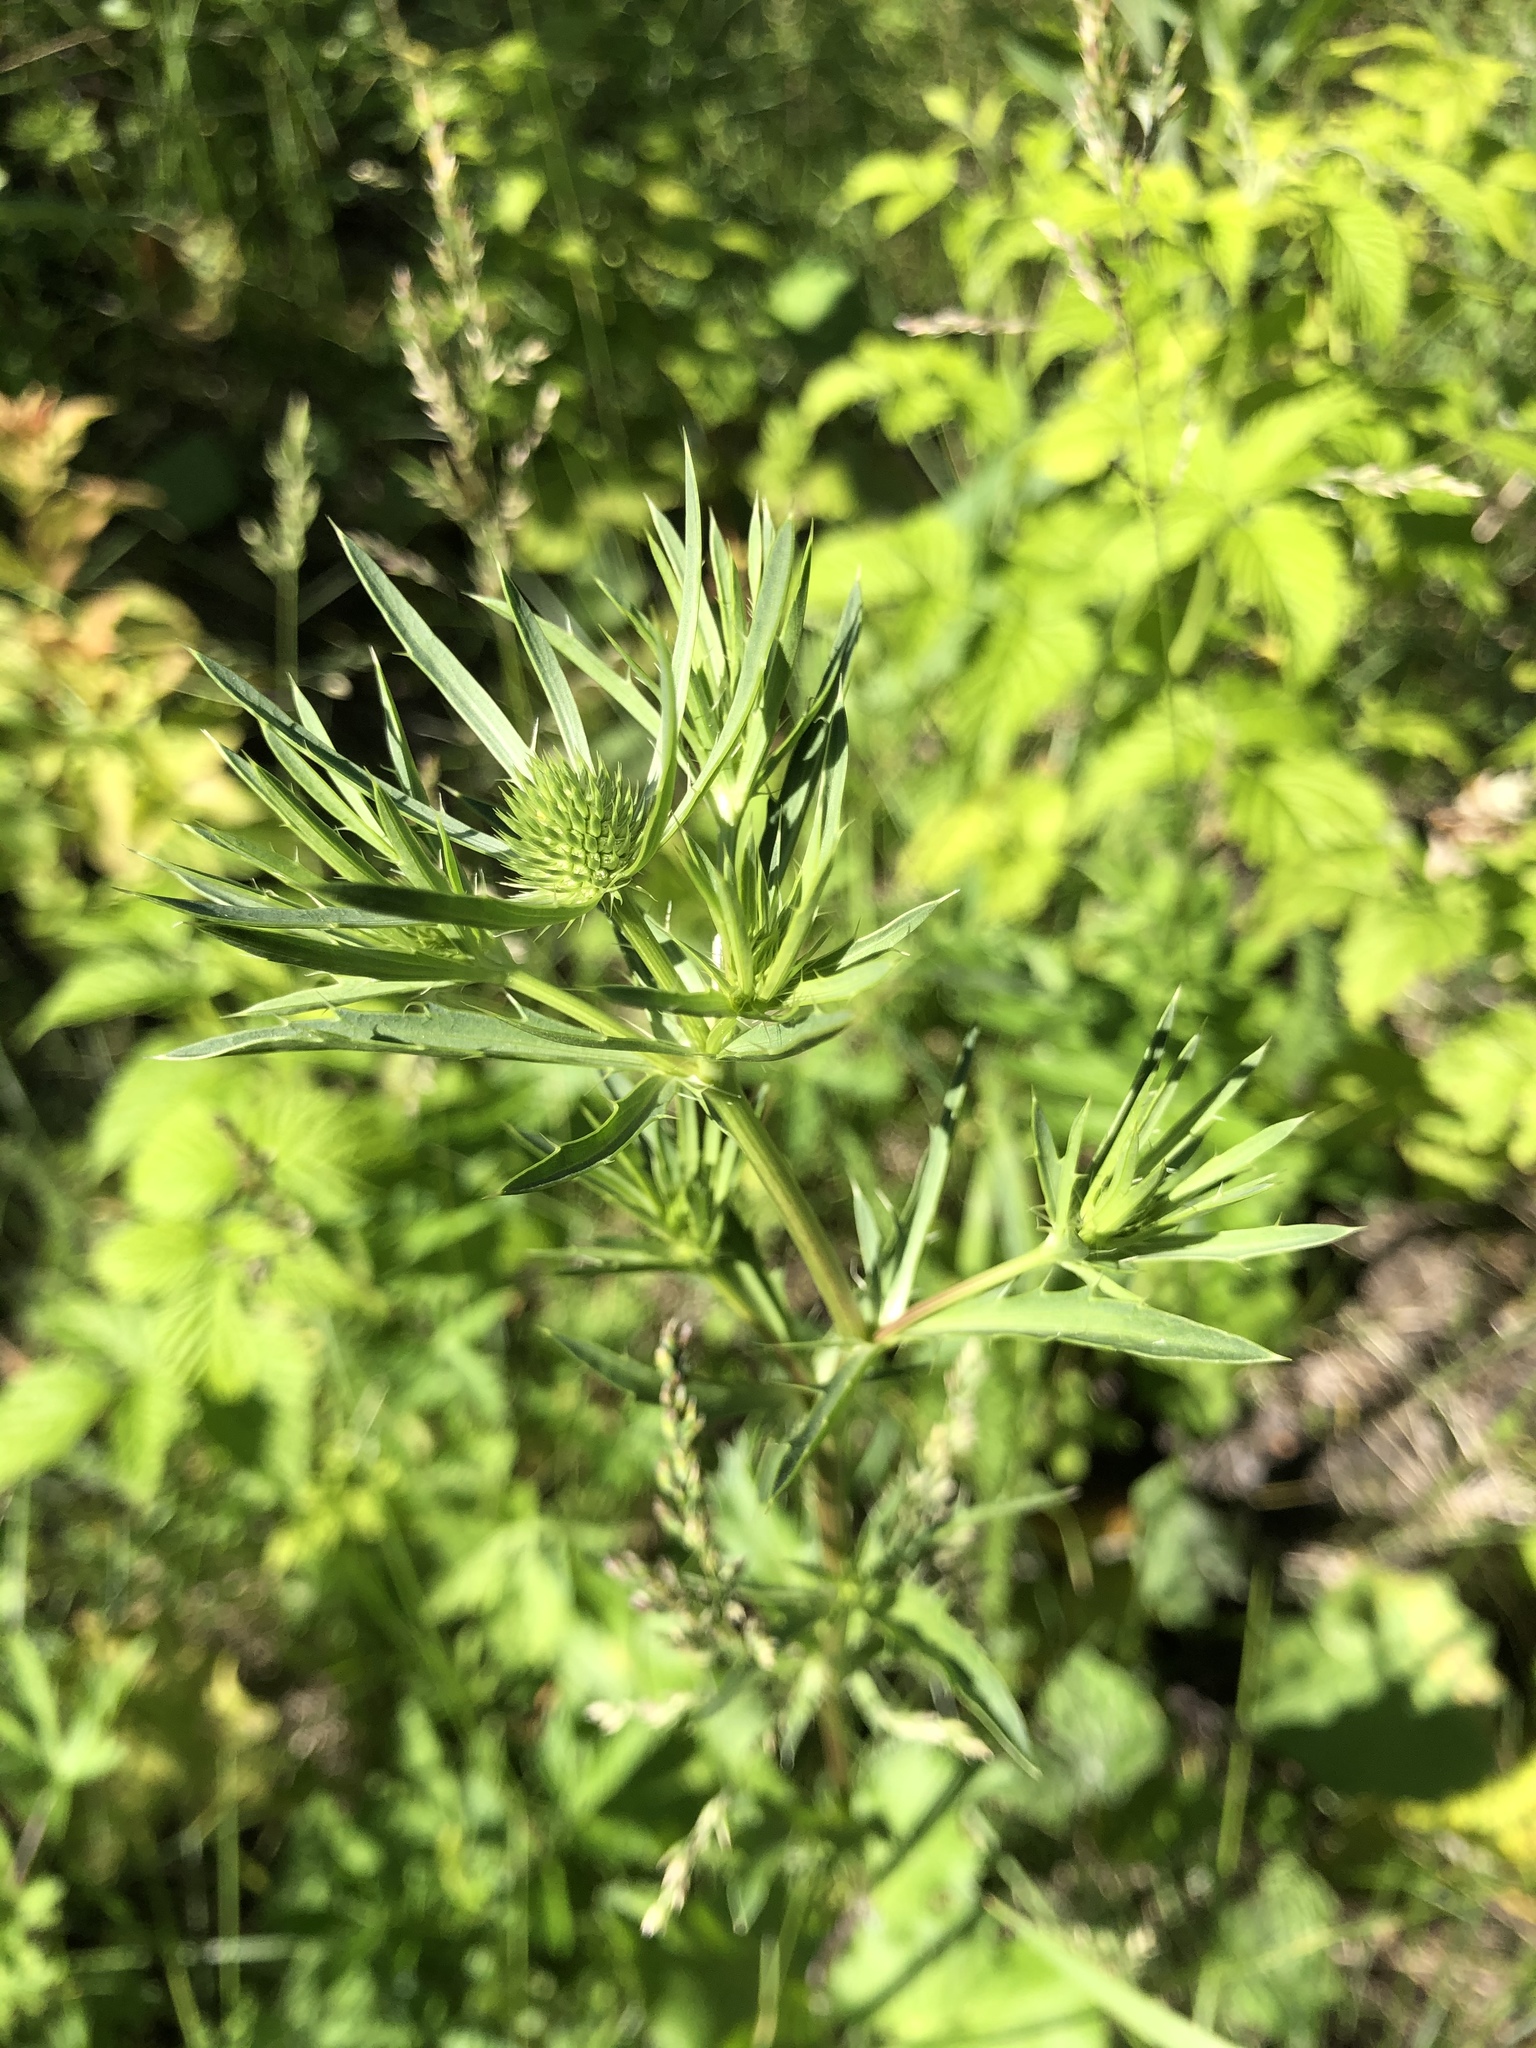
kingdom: Plantae
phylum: Tracheophyta
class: Magnoliopsida
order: Apiales
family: Apiaceae
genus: Eryngium
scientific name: Eryngium planum
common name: Blue eryngo
